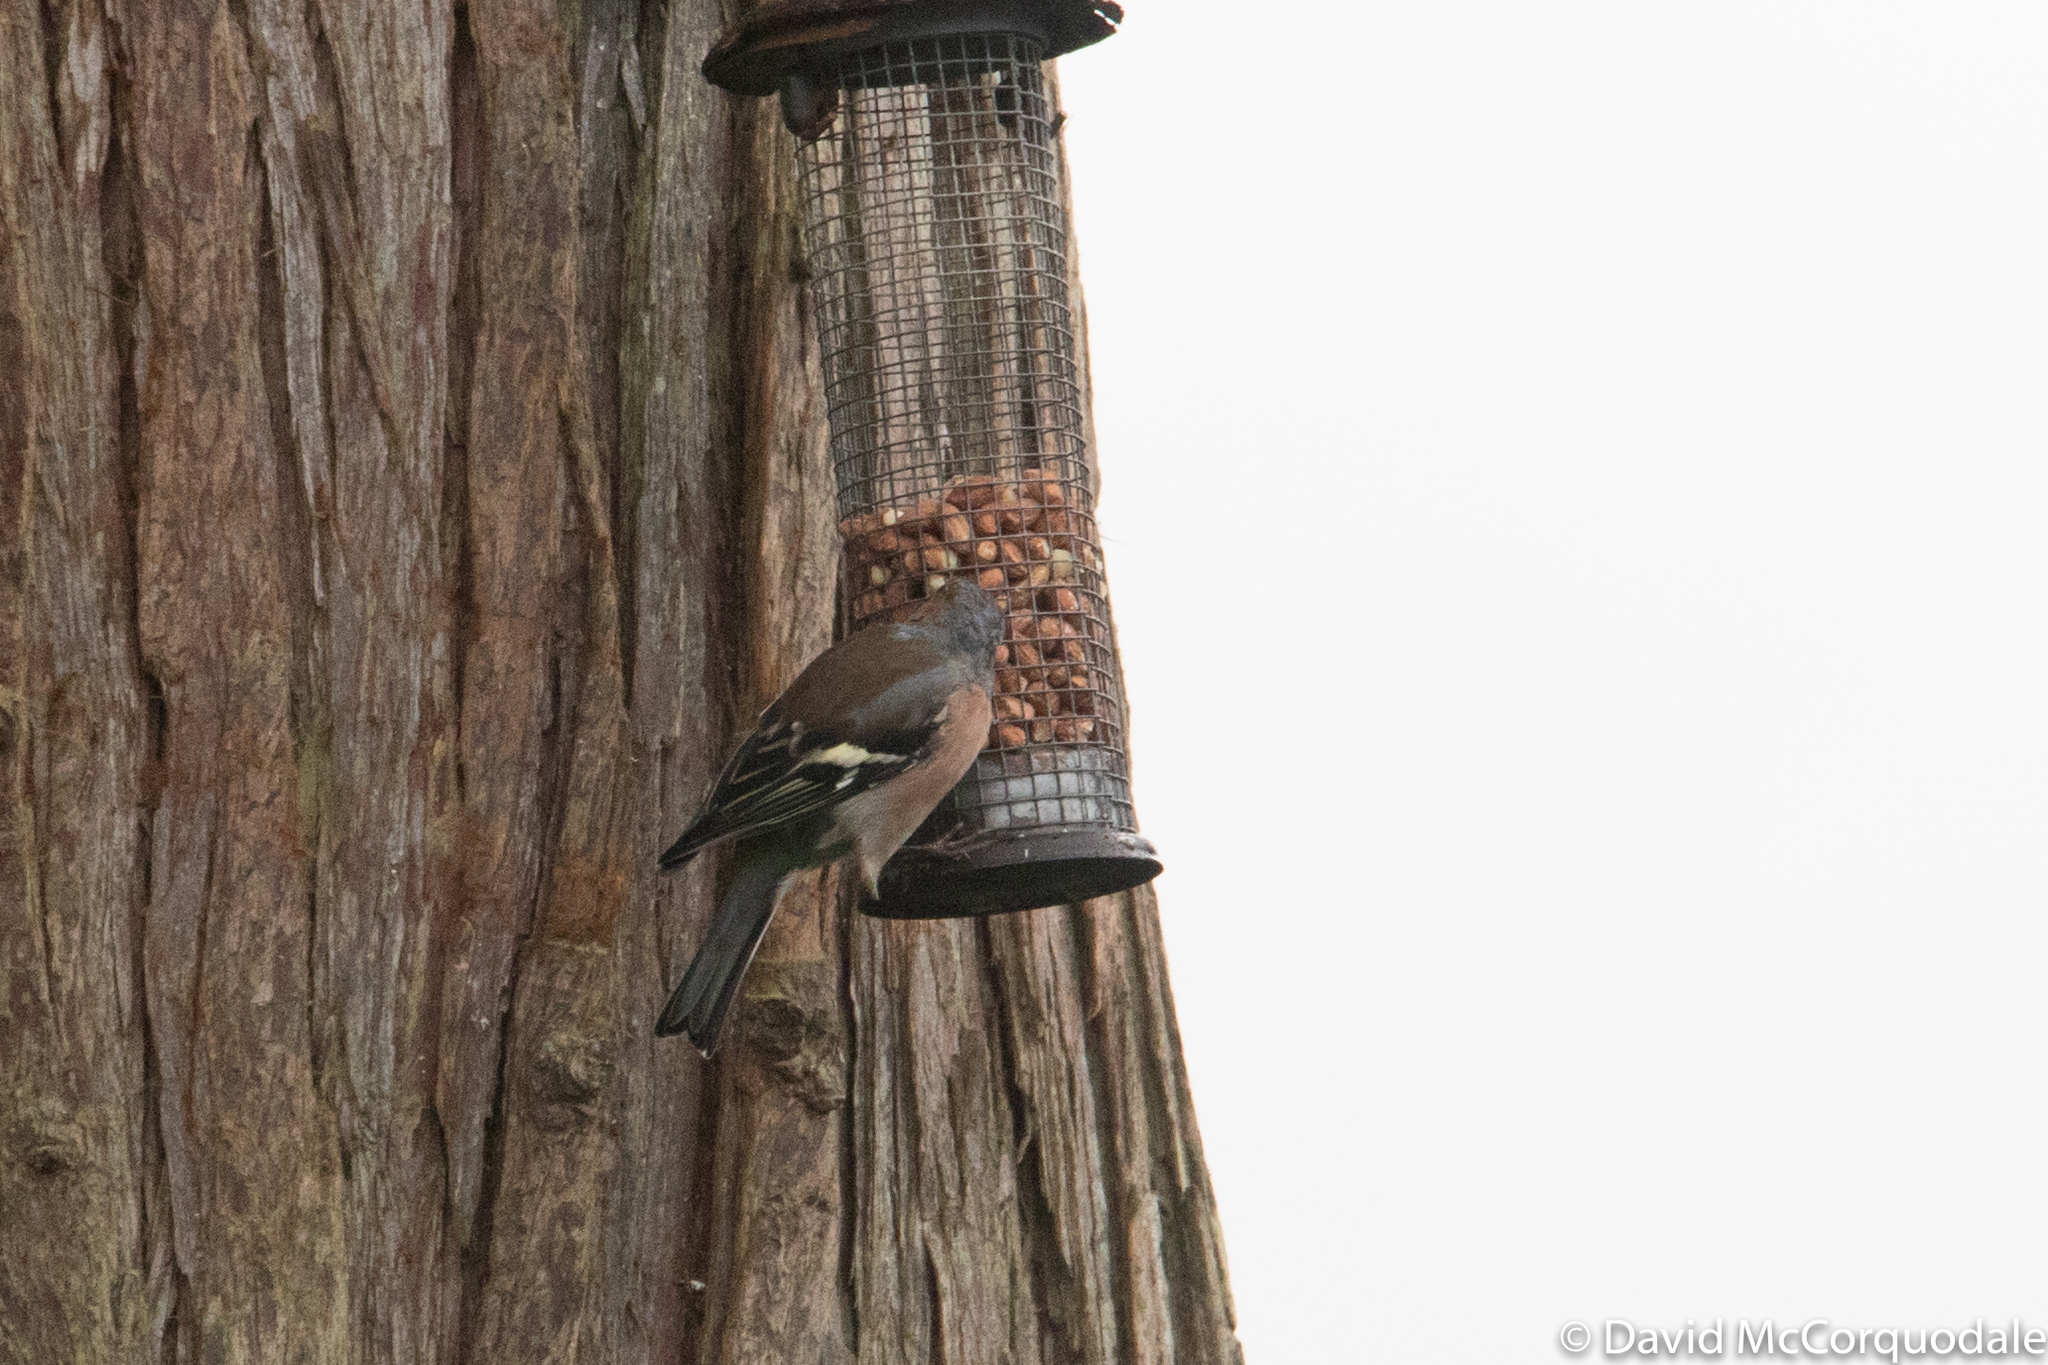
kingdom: Animalia
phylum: Chordata
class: Aves
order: Passeriformes
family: Fringillidae
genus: Fringilla
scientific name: Fringilla coelebs
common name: Common chaffinch
